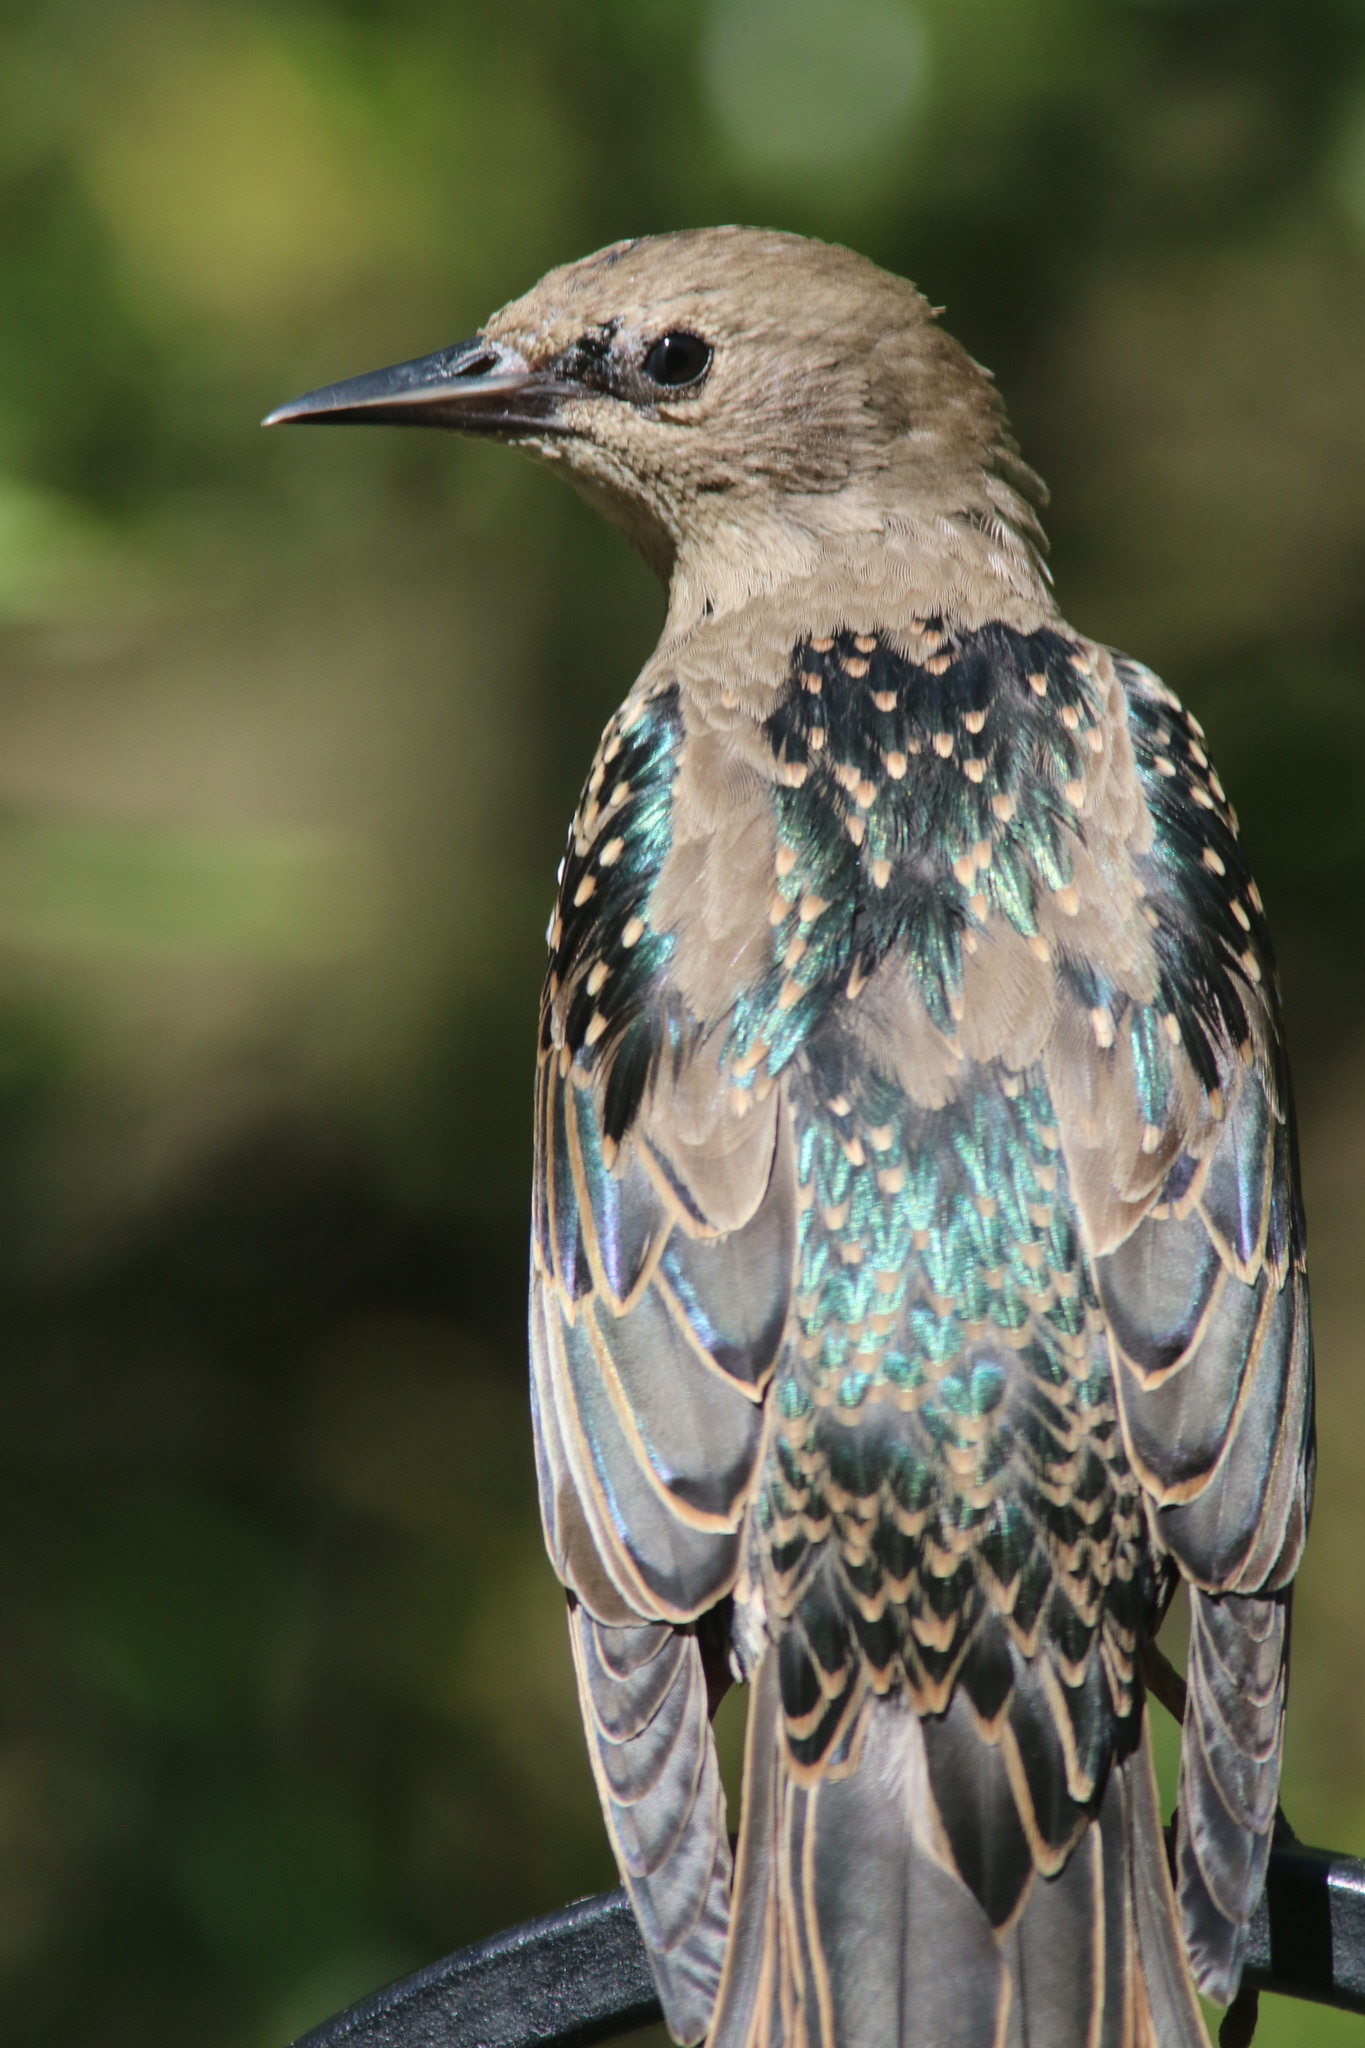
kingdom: Animalia
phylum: Chordata
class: Aves
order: Passeriformes
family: Sturnidae
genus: Sturnus
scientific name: Sturnus vulgaris
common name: Common starling
